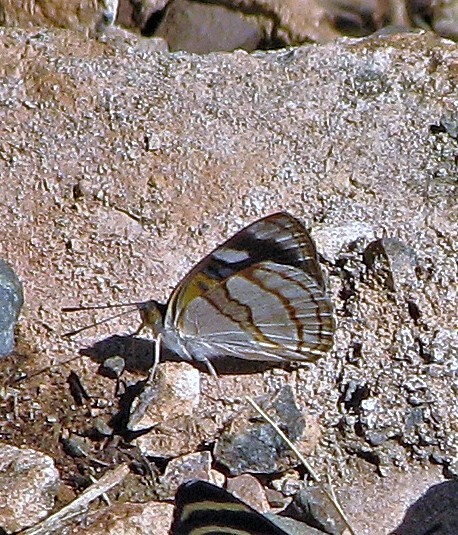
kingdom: Animalia
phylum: Arthropoda
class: Insecta
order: Lepidoptera
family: Nymphalidae
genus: Dynamine
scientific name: Dynamine tithia
